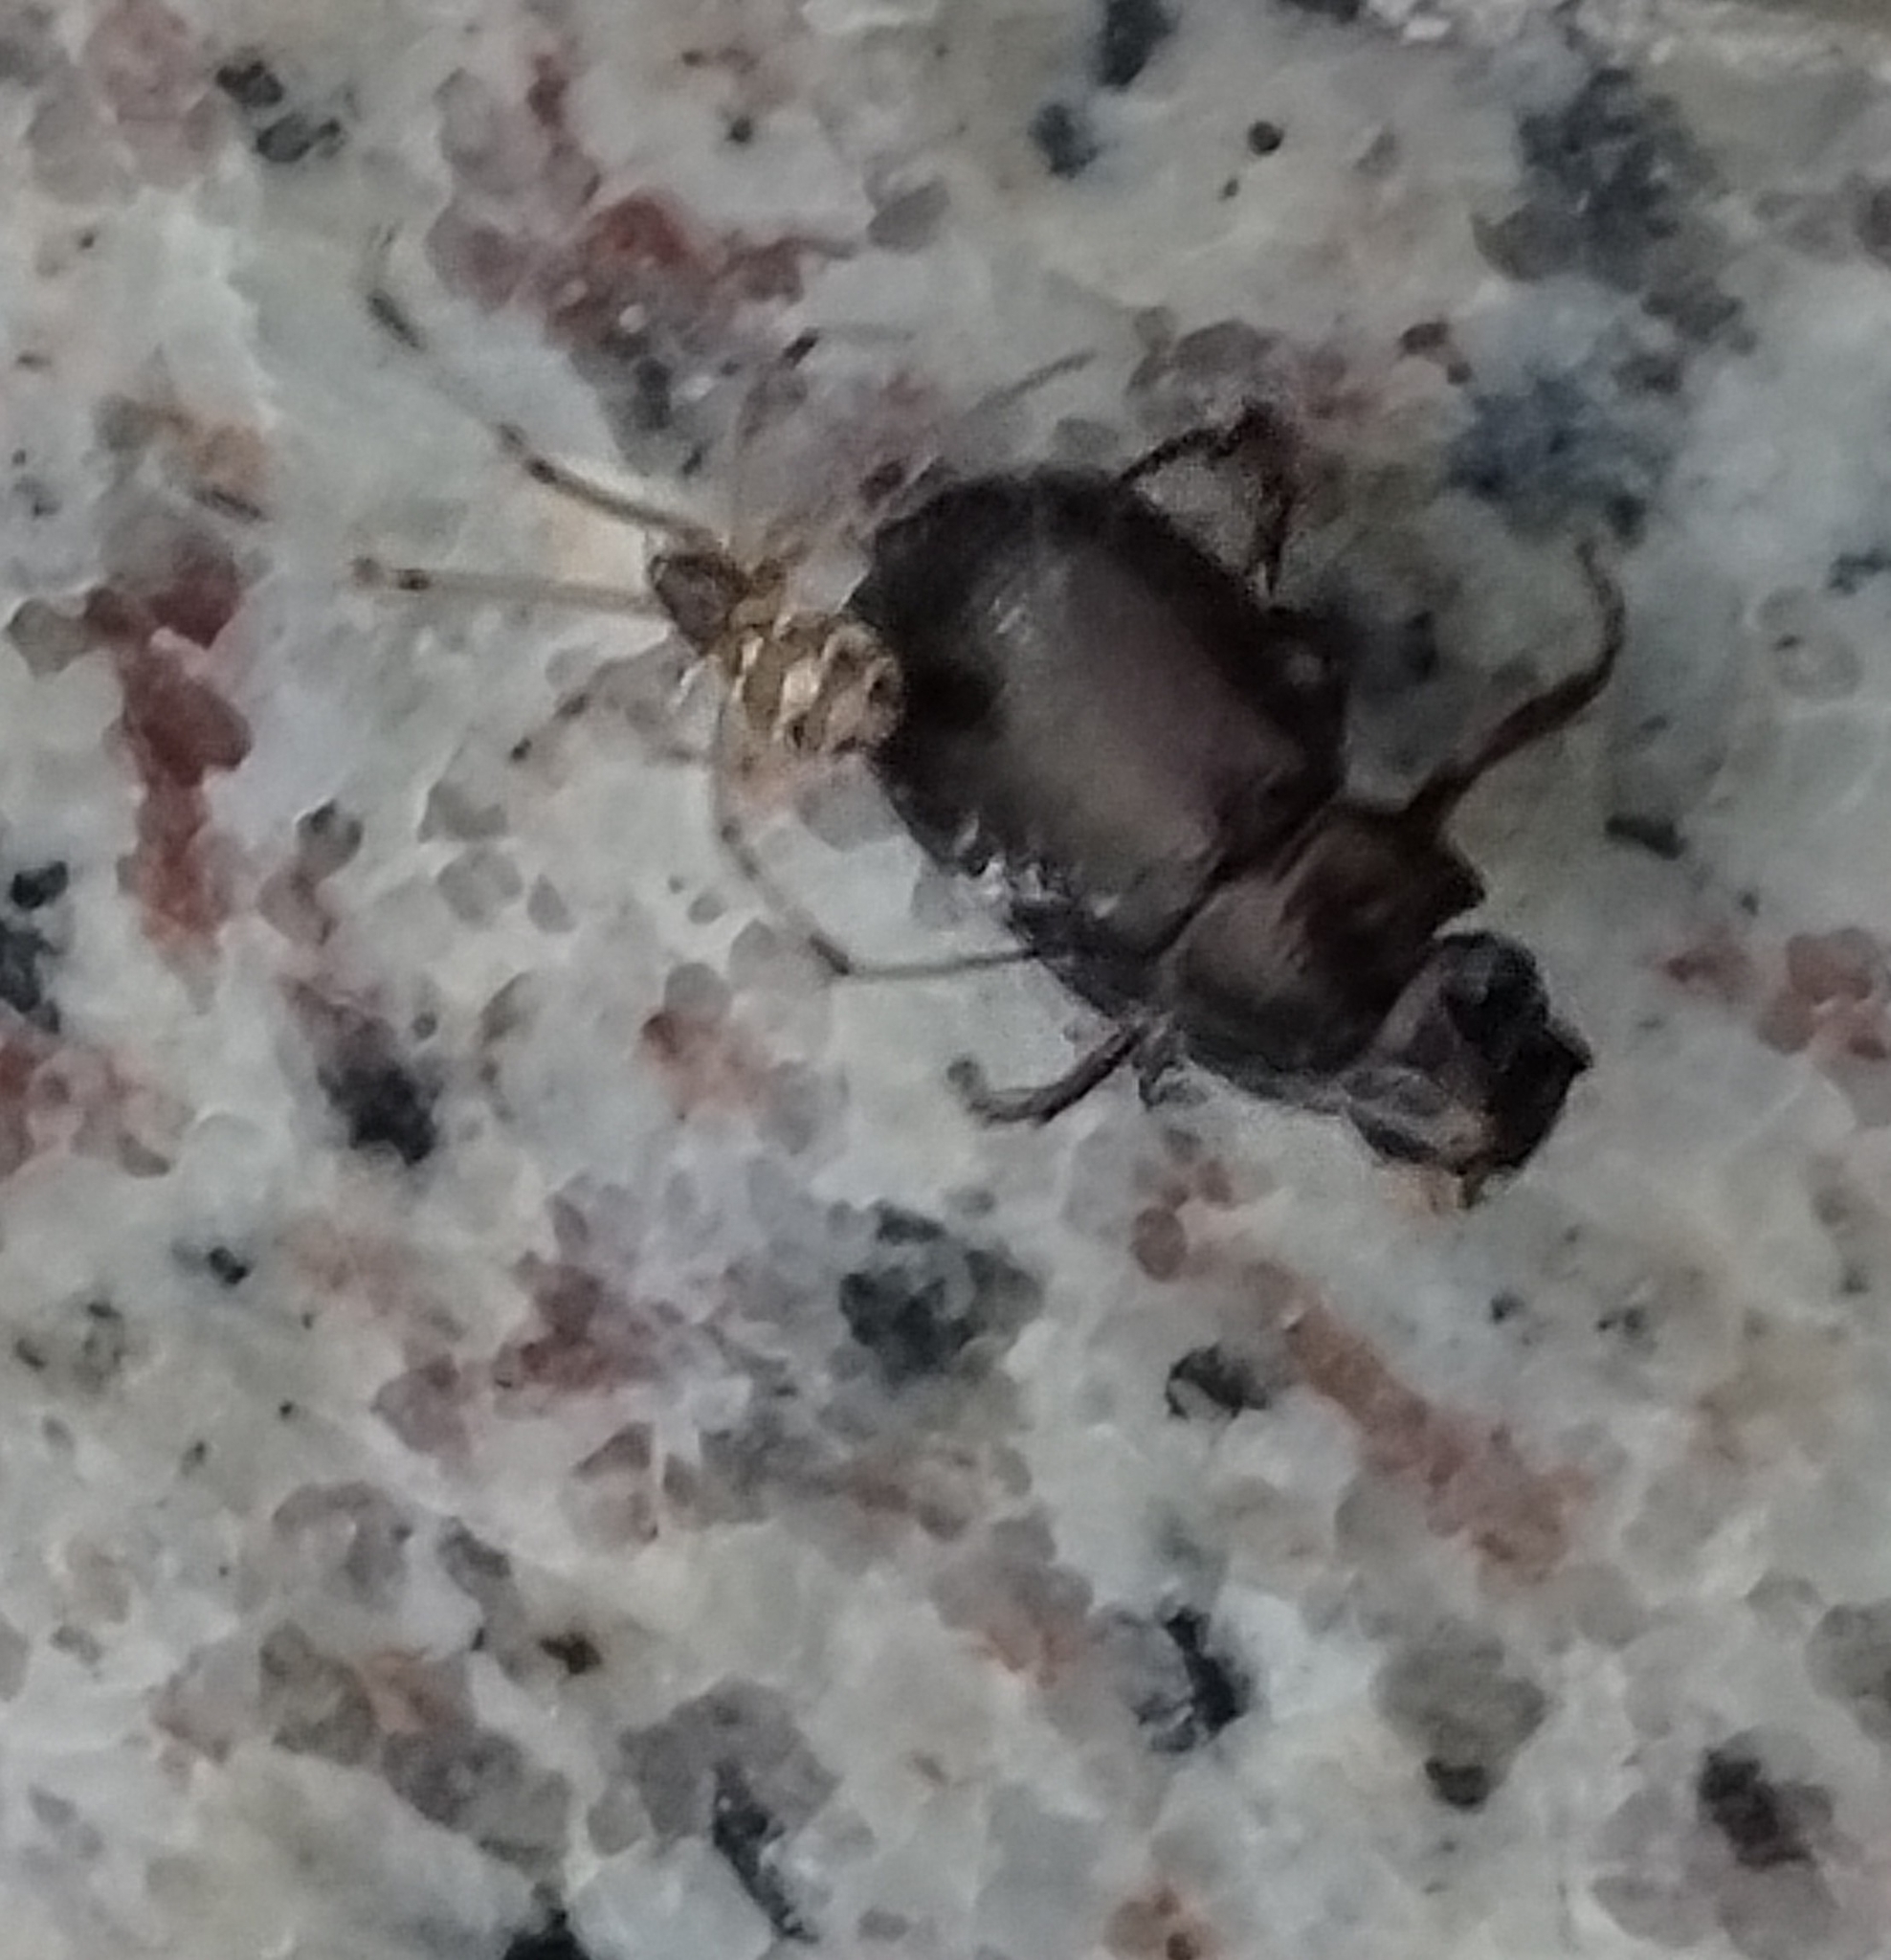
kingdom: Animalia
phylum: Arthropoda
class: Arachnida
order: Araneae
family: Theridiidae
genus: Latrodectus
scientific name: Latrodectus geometricus
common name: Brown widow spider
